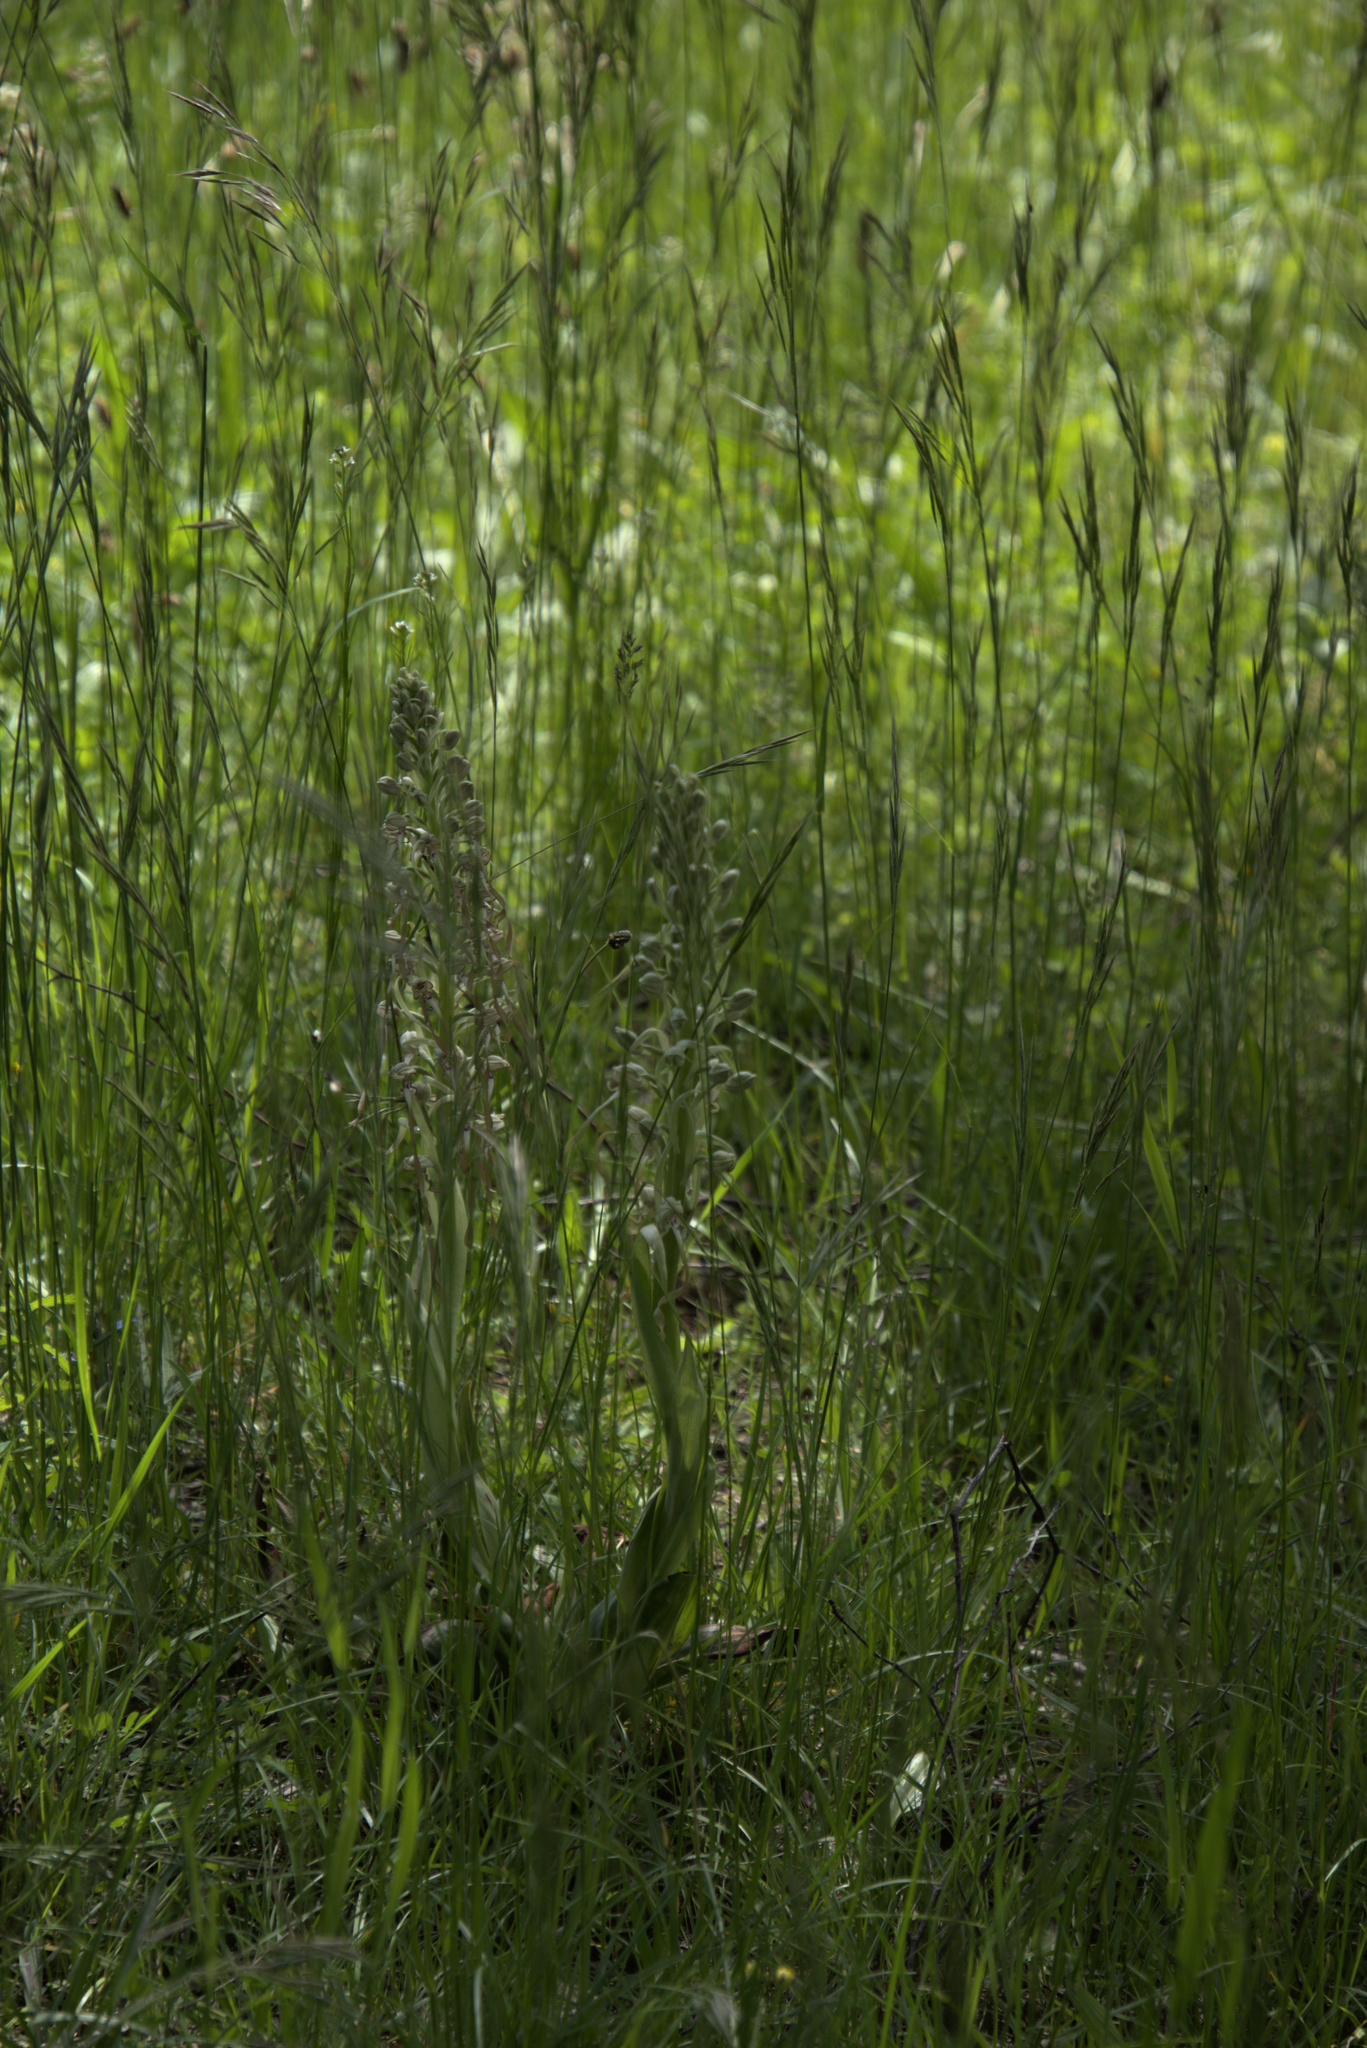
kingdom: Plantae
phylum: Tracheophyta
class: Liliopsida
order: Asparagales
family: Orchidaceae
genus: Himantoglossum
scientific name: Himantoglossum hircinum
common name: Lizard orchid
